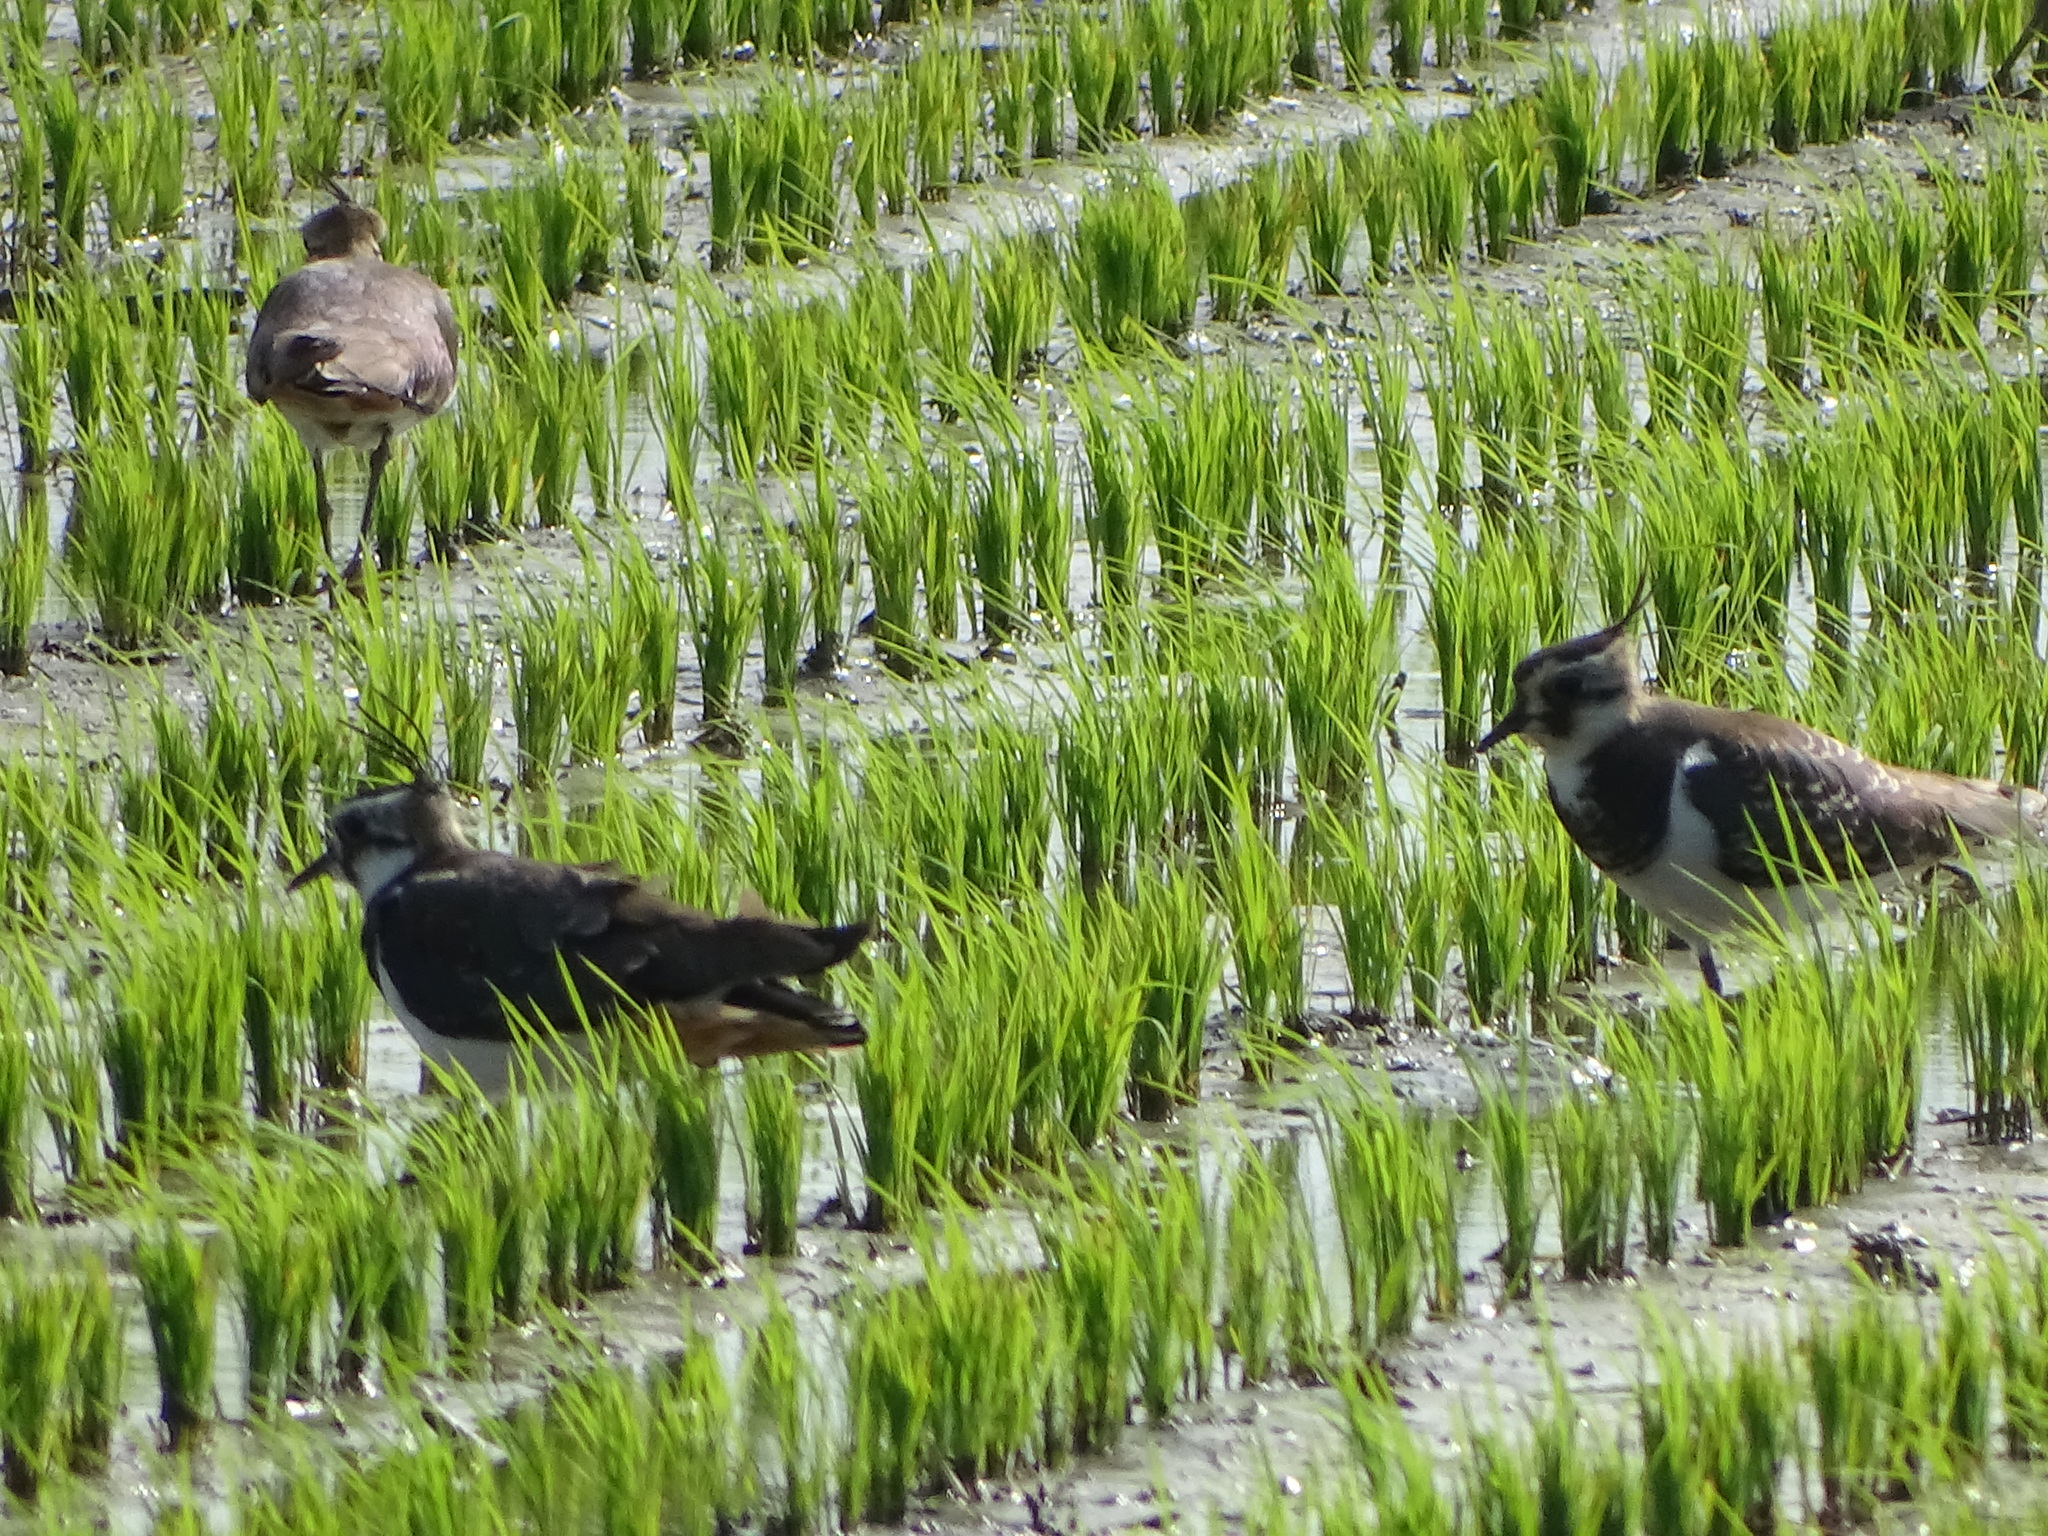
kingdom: Animalia
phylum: Chordata
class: Aves
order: Charadriiformes
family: Charadriidae
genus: Vanellus
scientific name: Vanellus vanellus
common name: Northern lapwing
